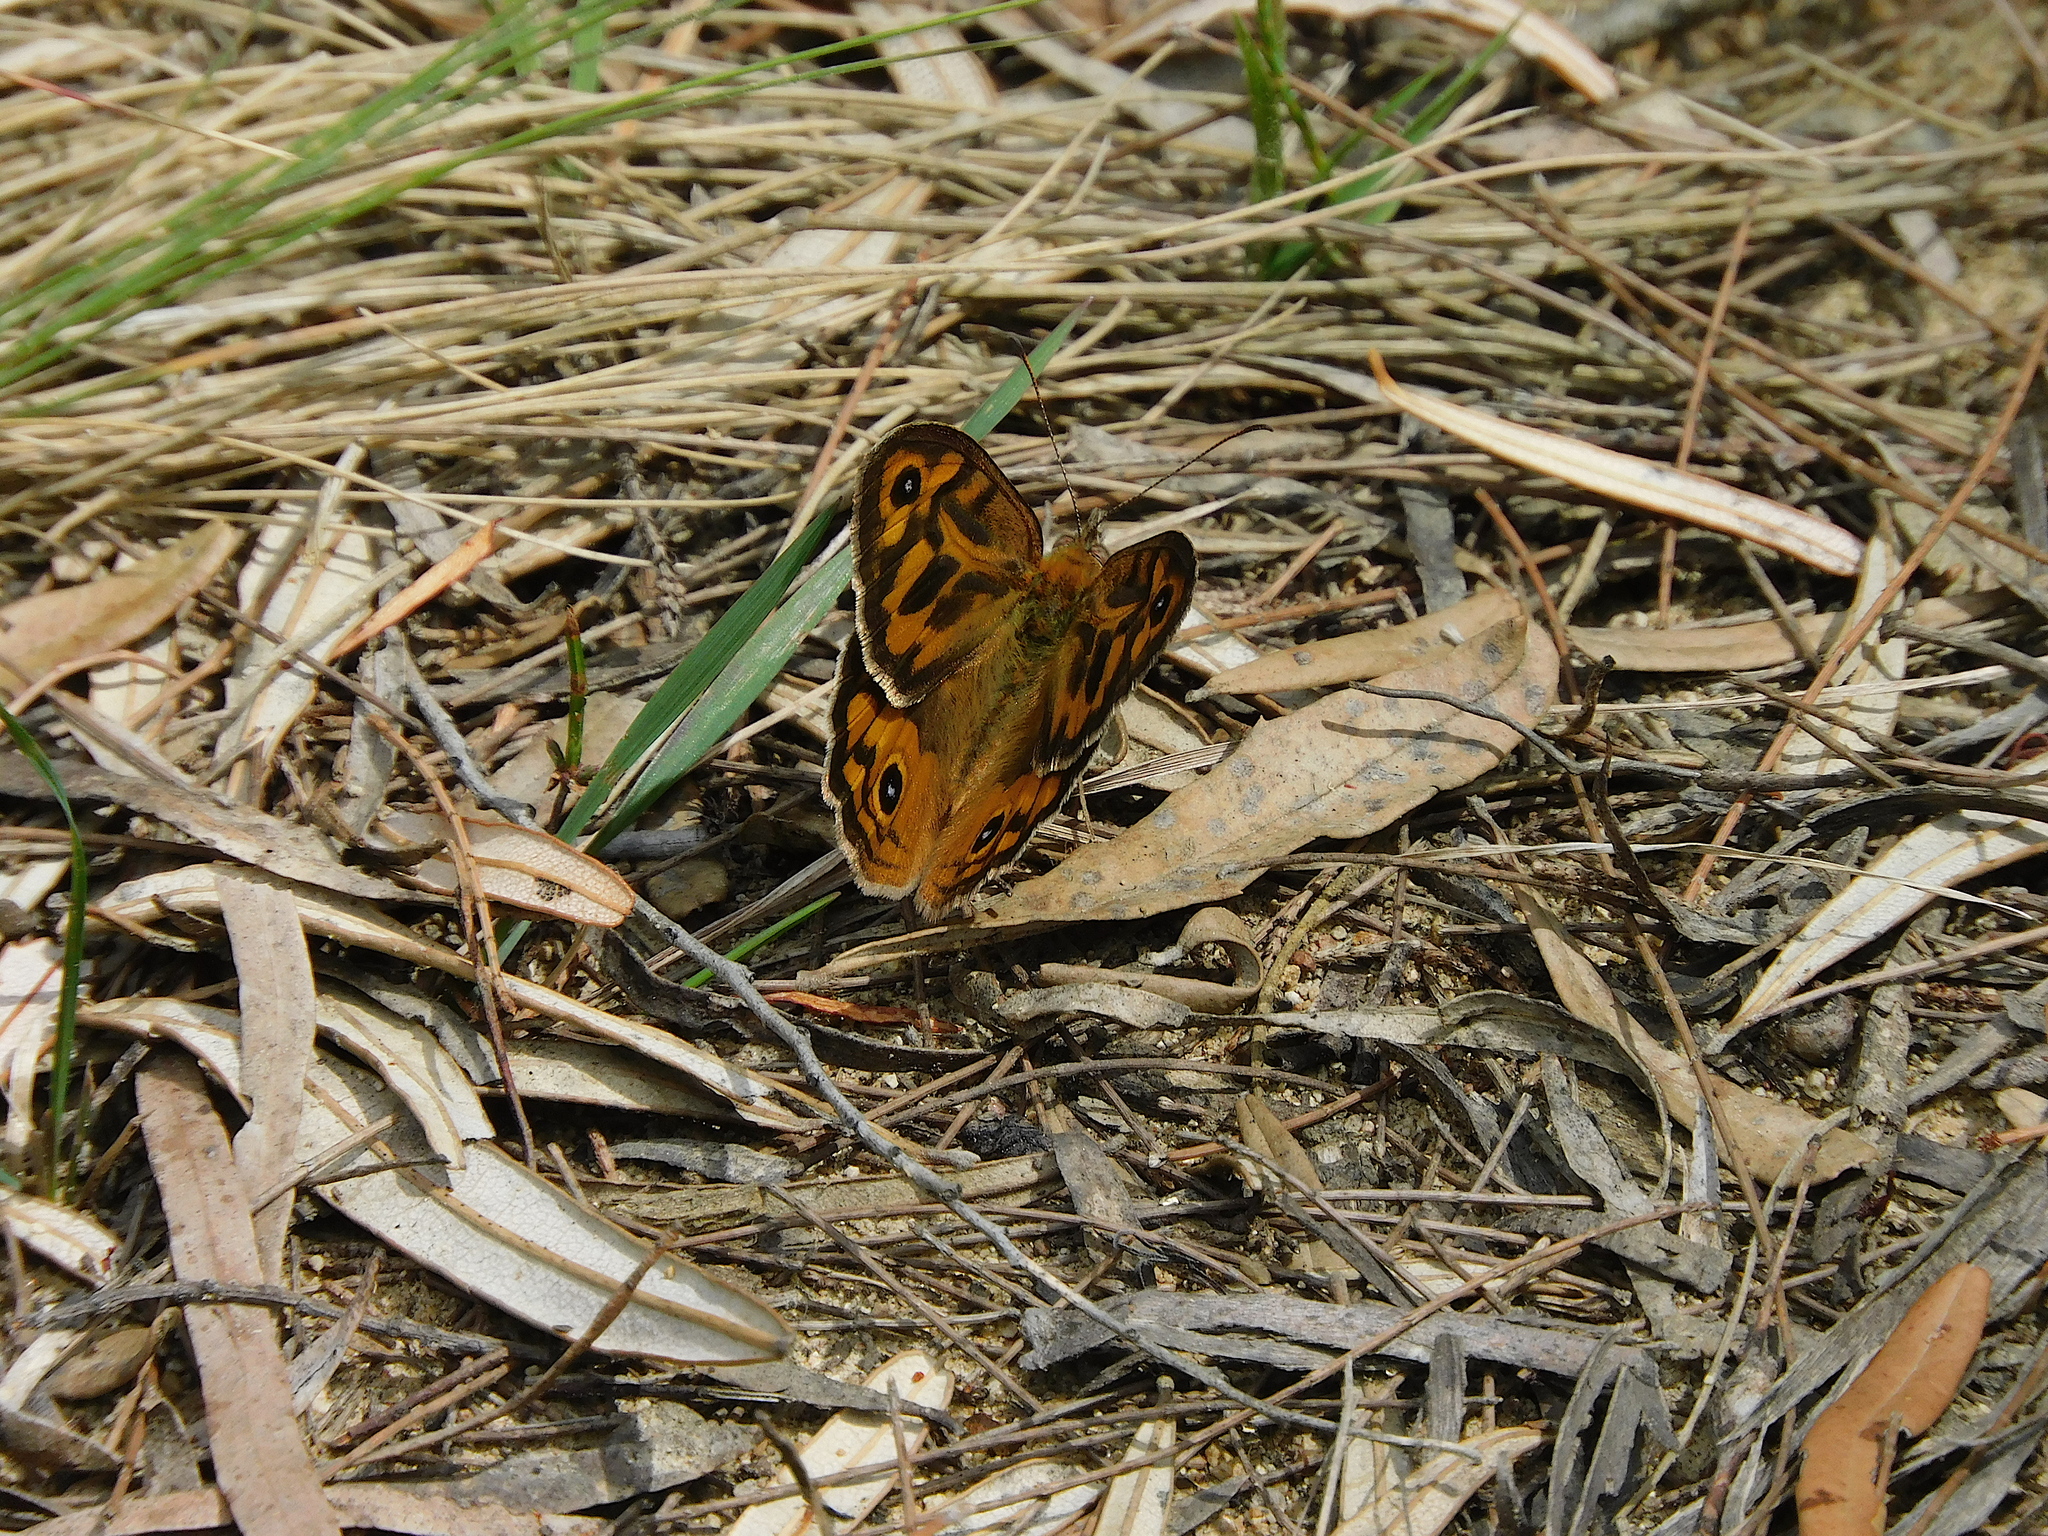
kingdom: Animalia
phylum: Arthropoda
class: Insecta
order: Lepidoptera
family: Nymphalidae
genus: Heteronympha
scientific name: Heteronympha merope
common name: Common brown
